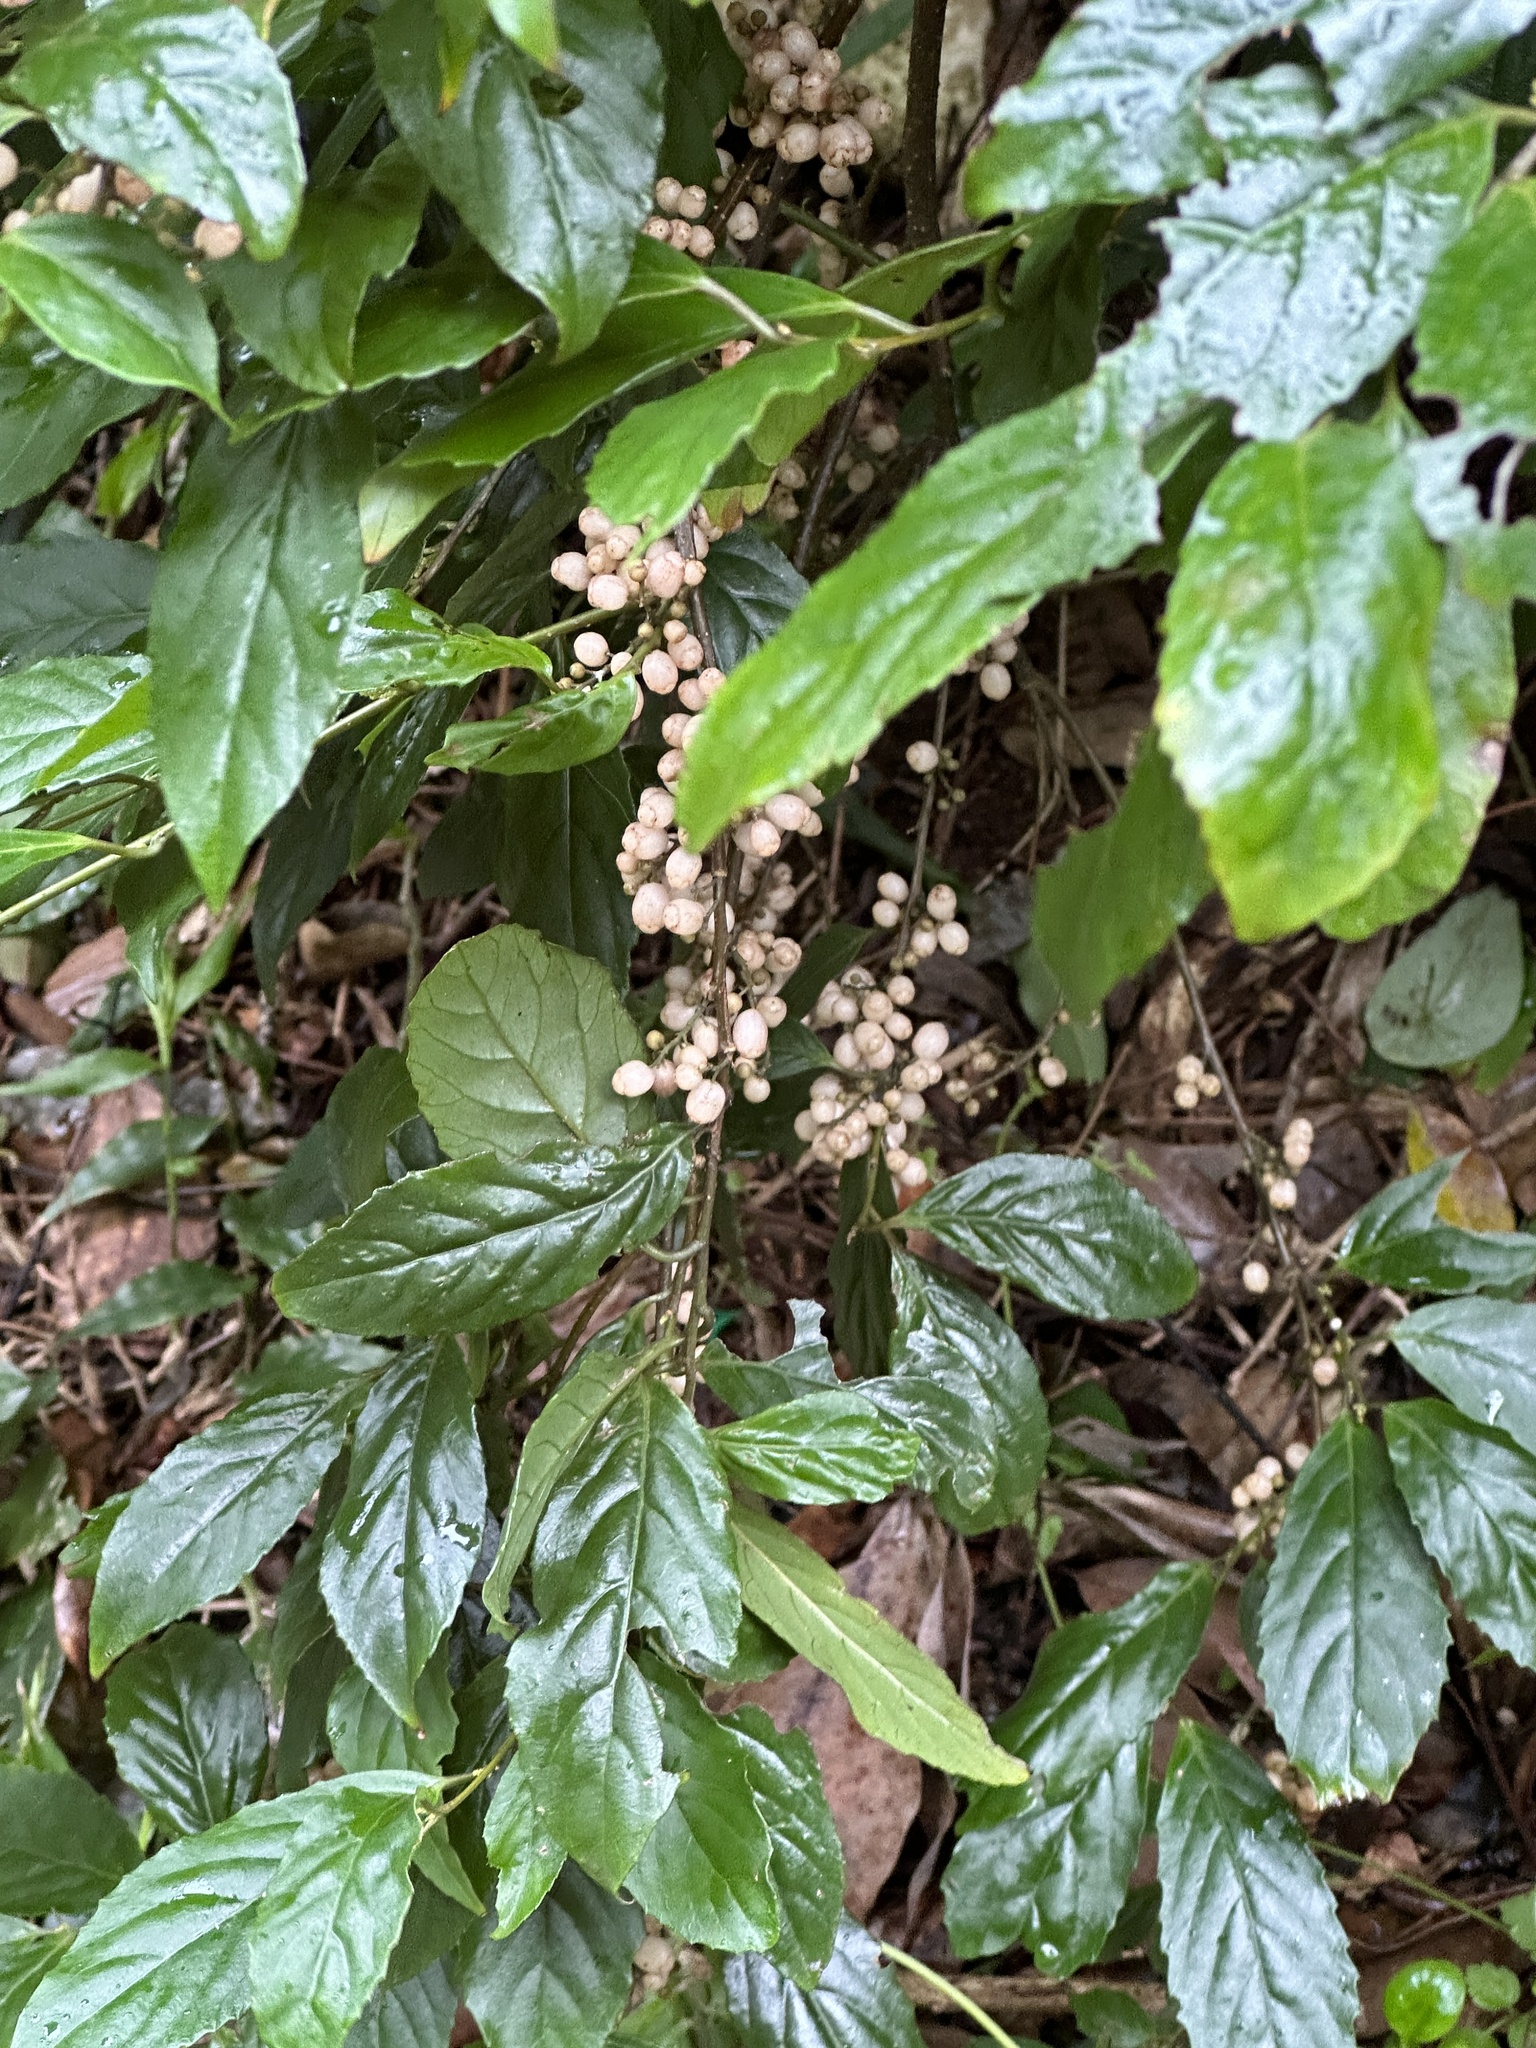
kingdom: Plantae
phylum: Tracheophyta
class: Magnoliopsida
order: Ericales
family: Primulaceae
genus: Maesa
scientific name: Maesa perlaria
